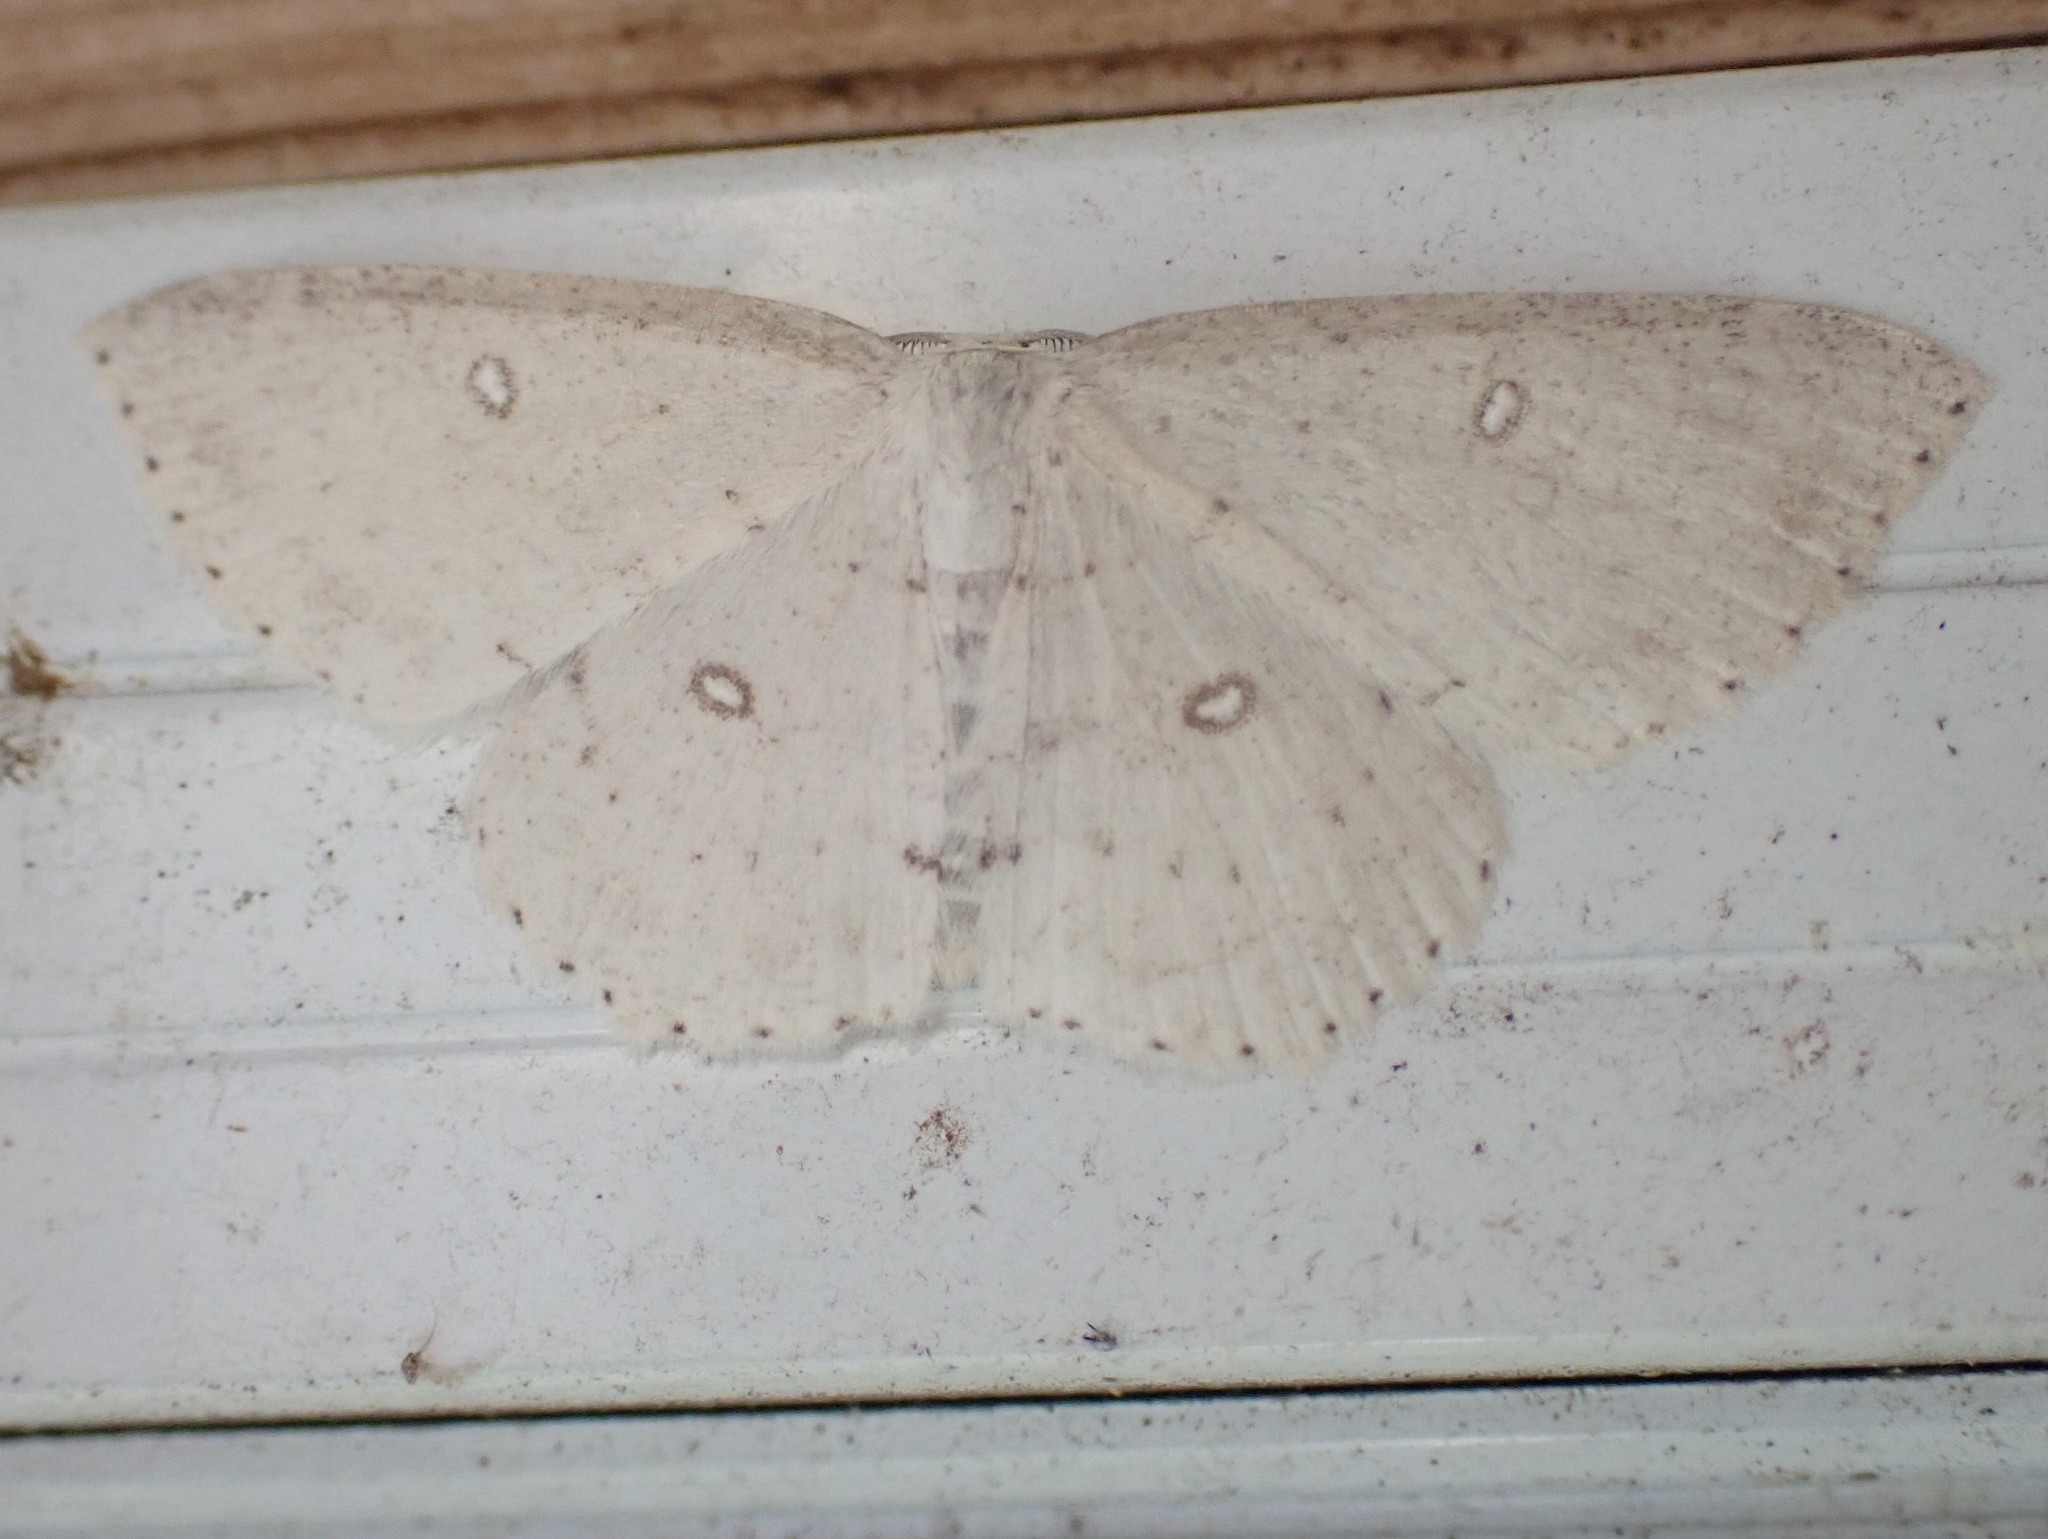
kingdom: Animalia
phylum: Arthropoda
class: Insecta
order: Lepidoptera
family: Geometridae
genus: Cyclophora
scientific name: Cyclophora pendulinaria
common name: Sweet fern geometer
